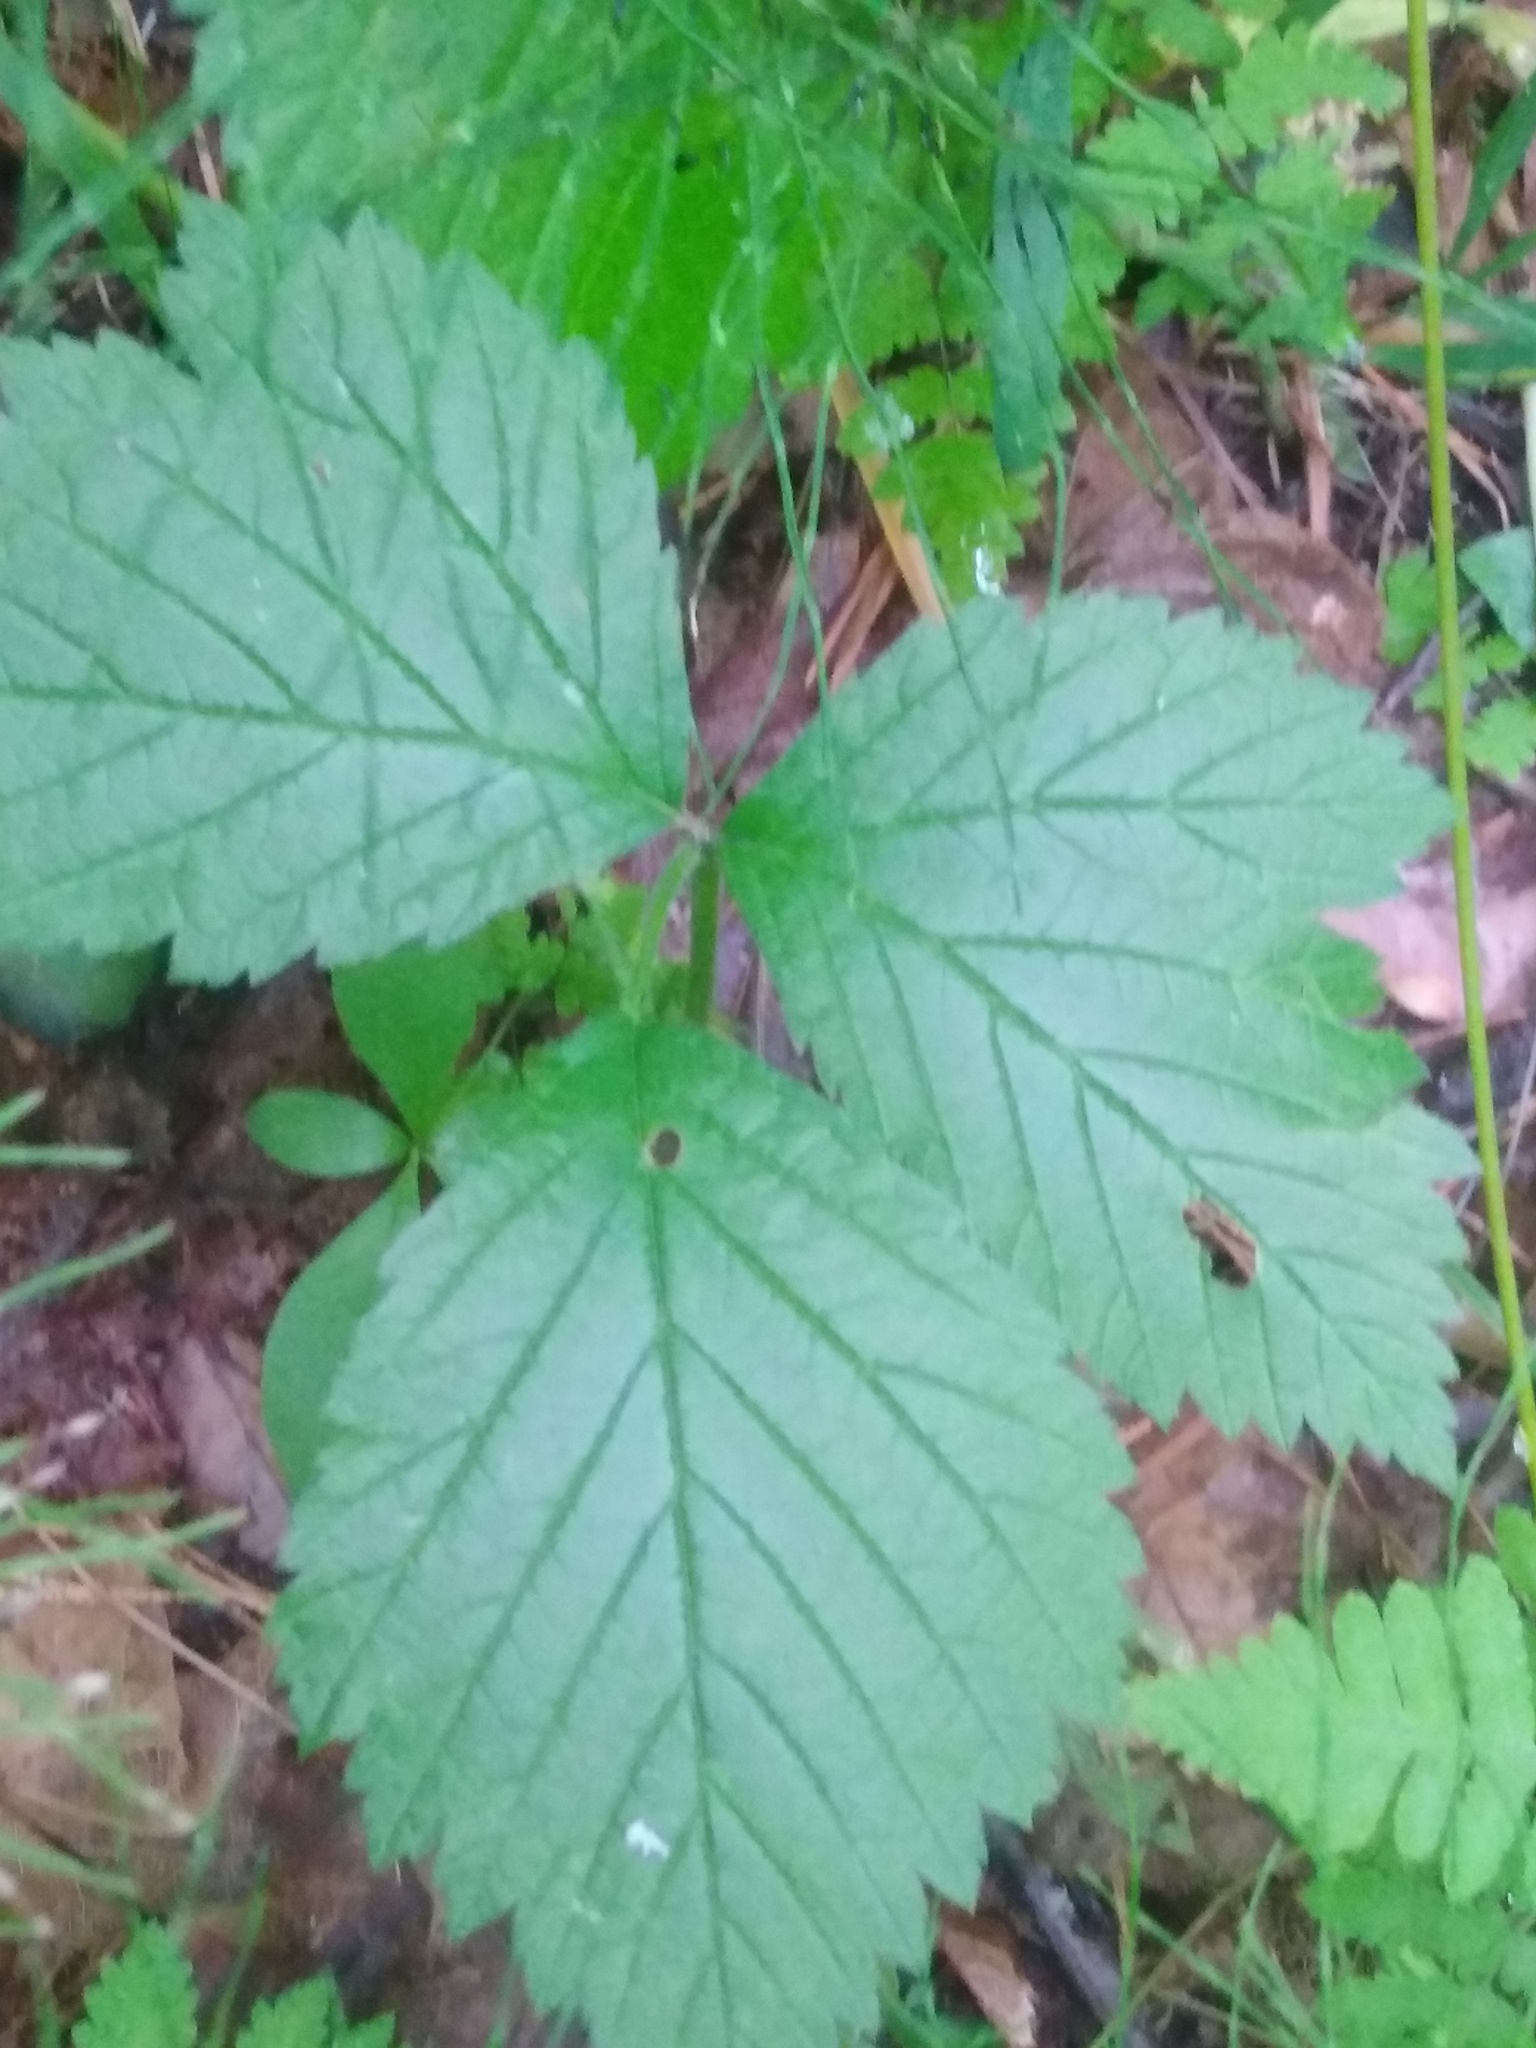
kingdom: Plantae
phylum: Tracheophyta
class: Magnoliopsida
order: Rosales
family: Rosaceae
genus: Rubus
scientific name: Rubus saxatilis
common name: Stone bramble
